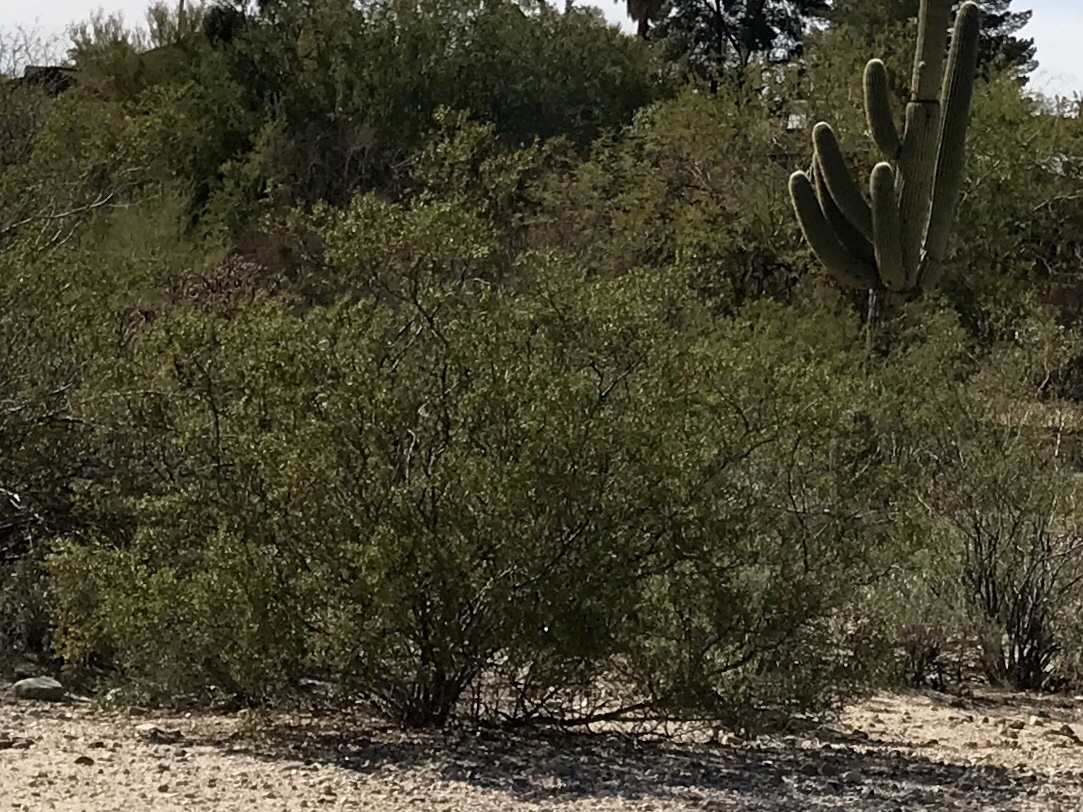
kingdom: Plantae
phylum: Tracheophyta
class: Magnoliopsida
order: Zygophyllales
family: Zygophyllaceae
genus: Larrea
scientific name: Larrea tridentata
